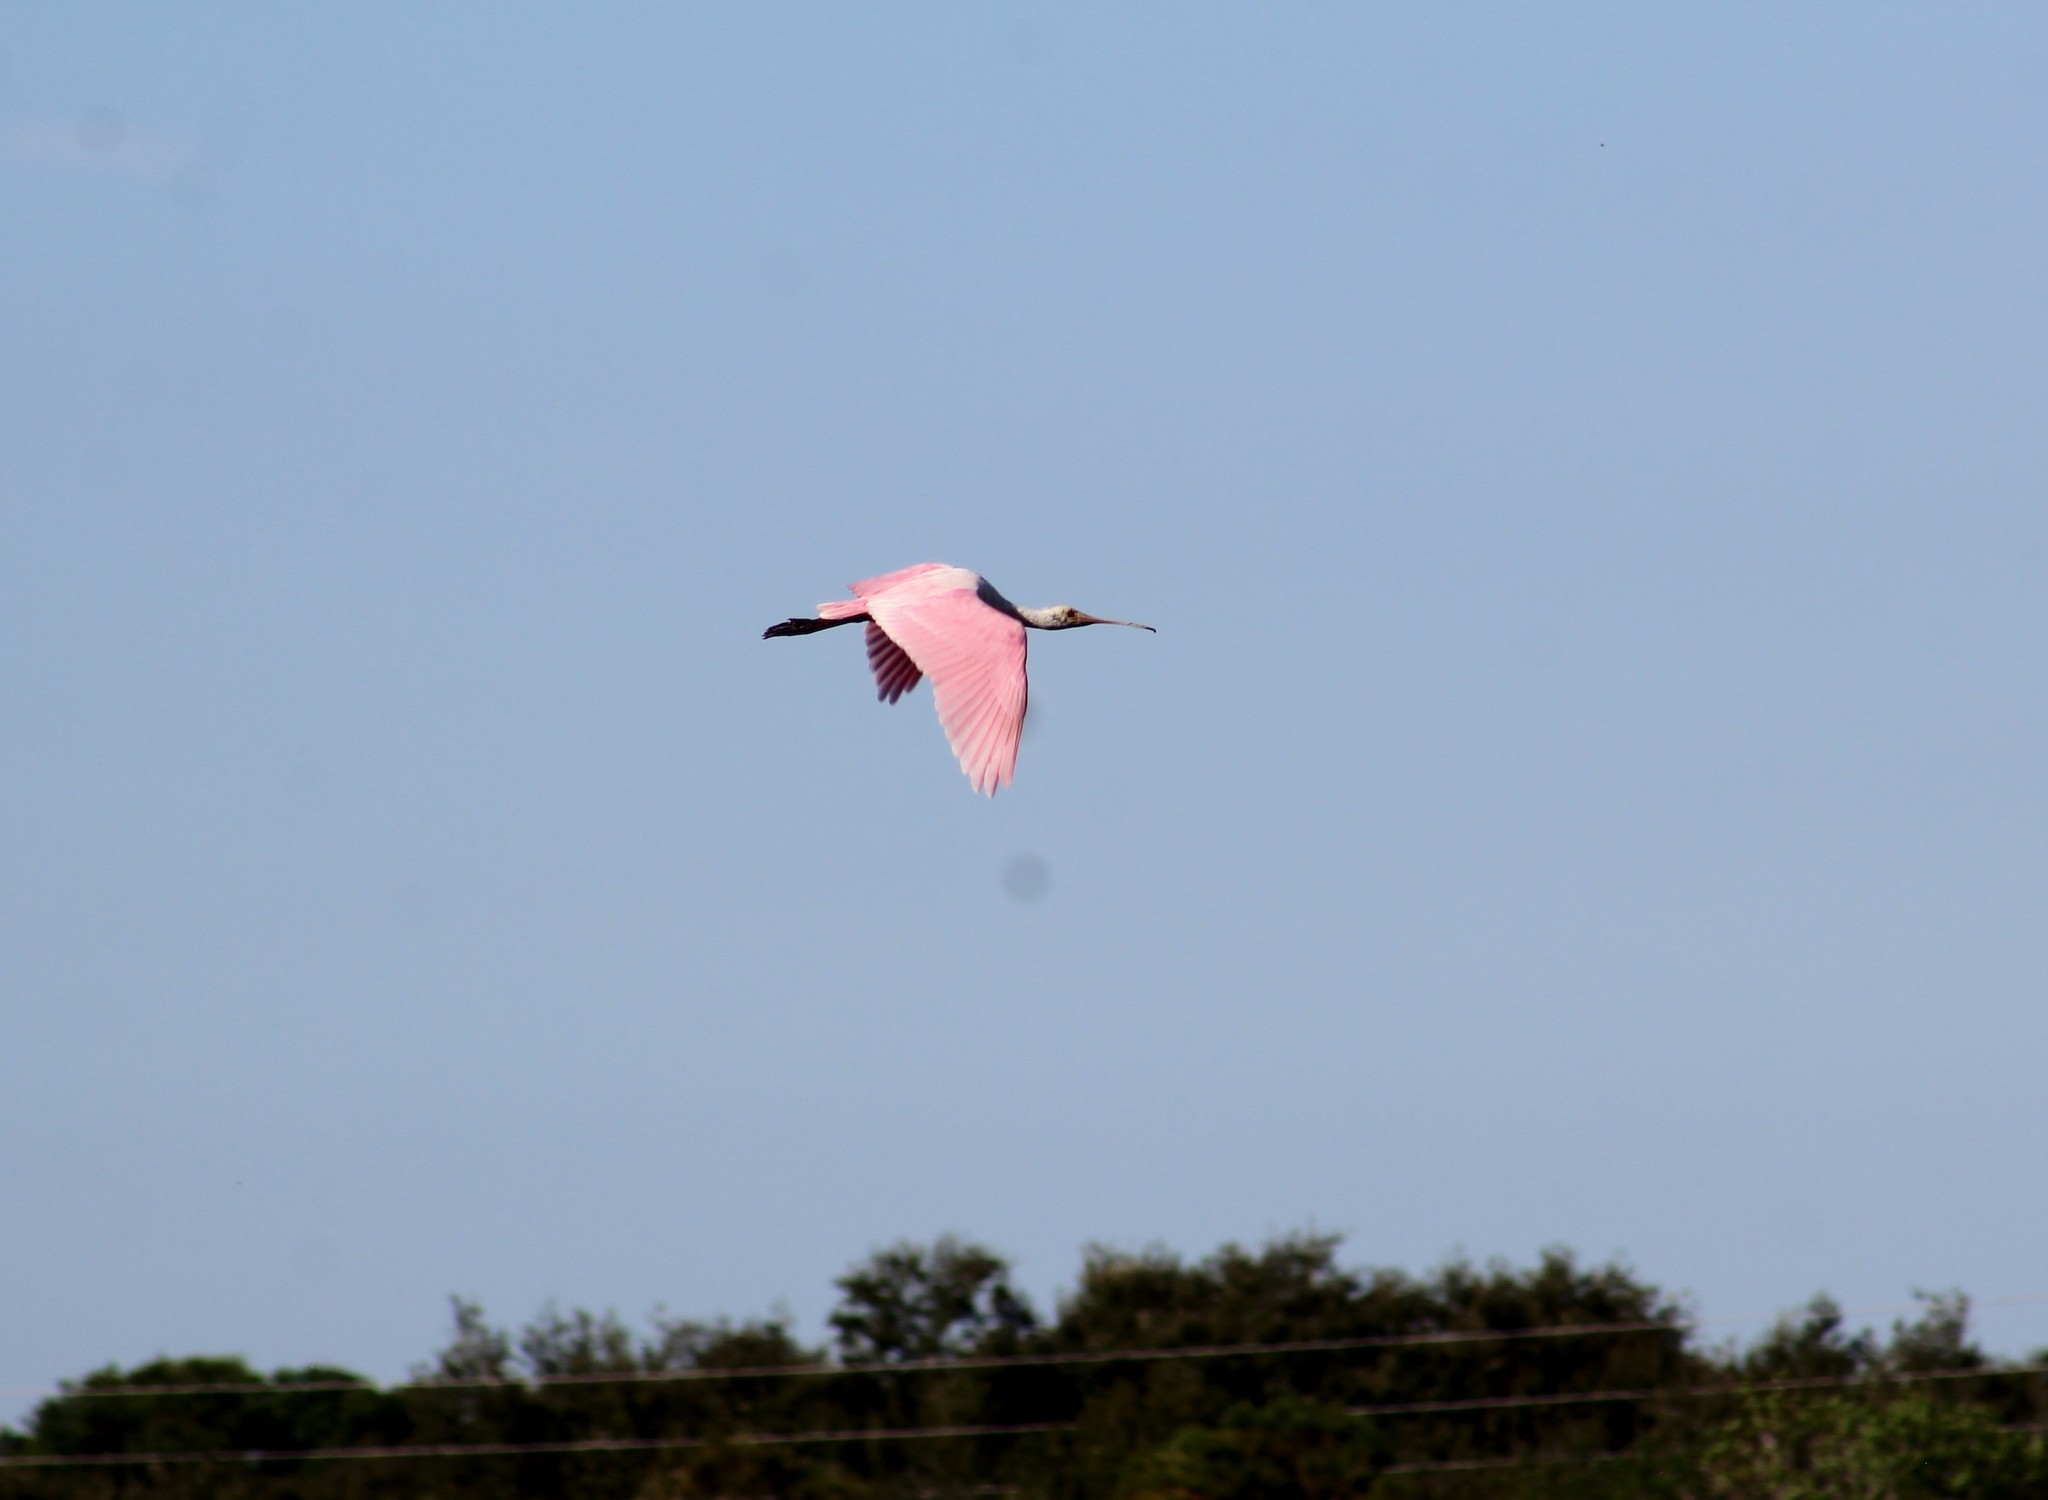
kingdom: Animalia
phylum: Chordata
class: Aves
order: Pelecaniformes
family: Threskiornithidae
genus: Platalea
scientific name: Platalea ajaja
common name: Roseate spoonbill
